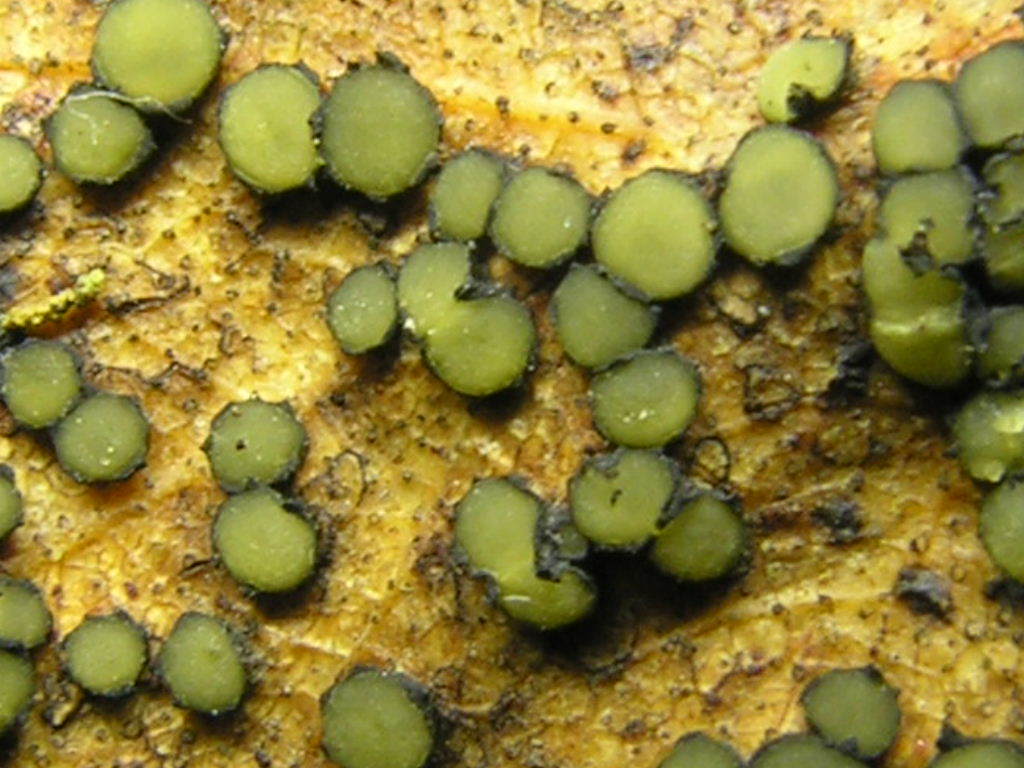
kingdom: Fungi
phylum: Ascomycota
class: Leotiomycetes
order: Rhytismatales
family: Rhytismataceae
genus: Coccomyces
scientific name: Coccomyces coronatus
